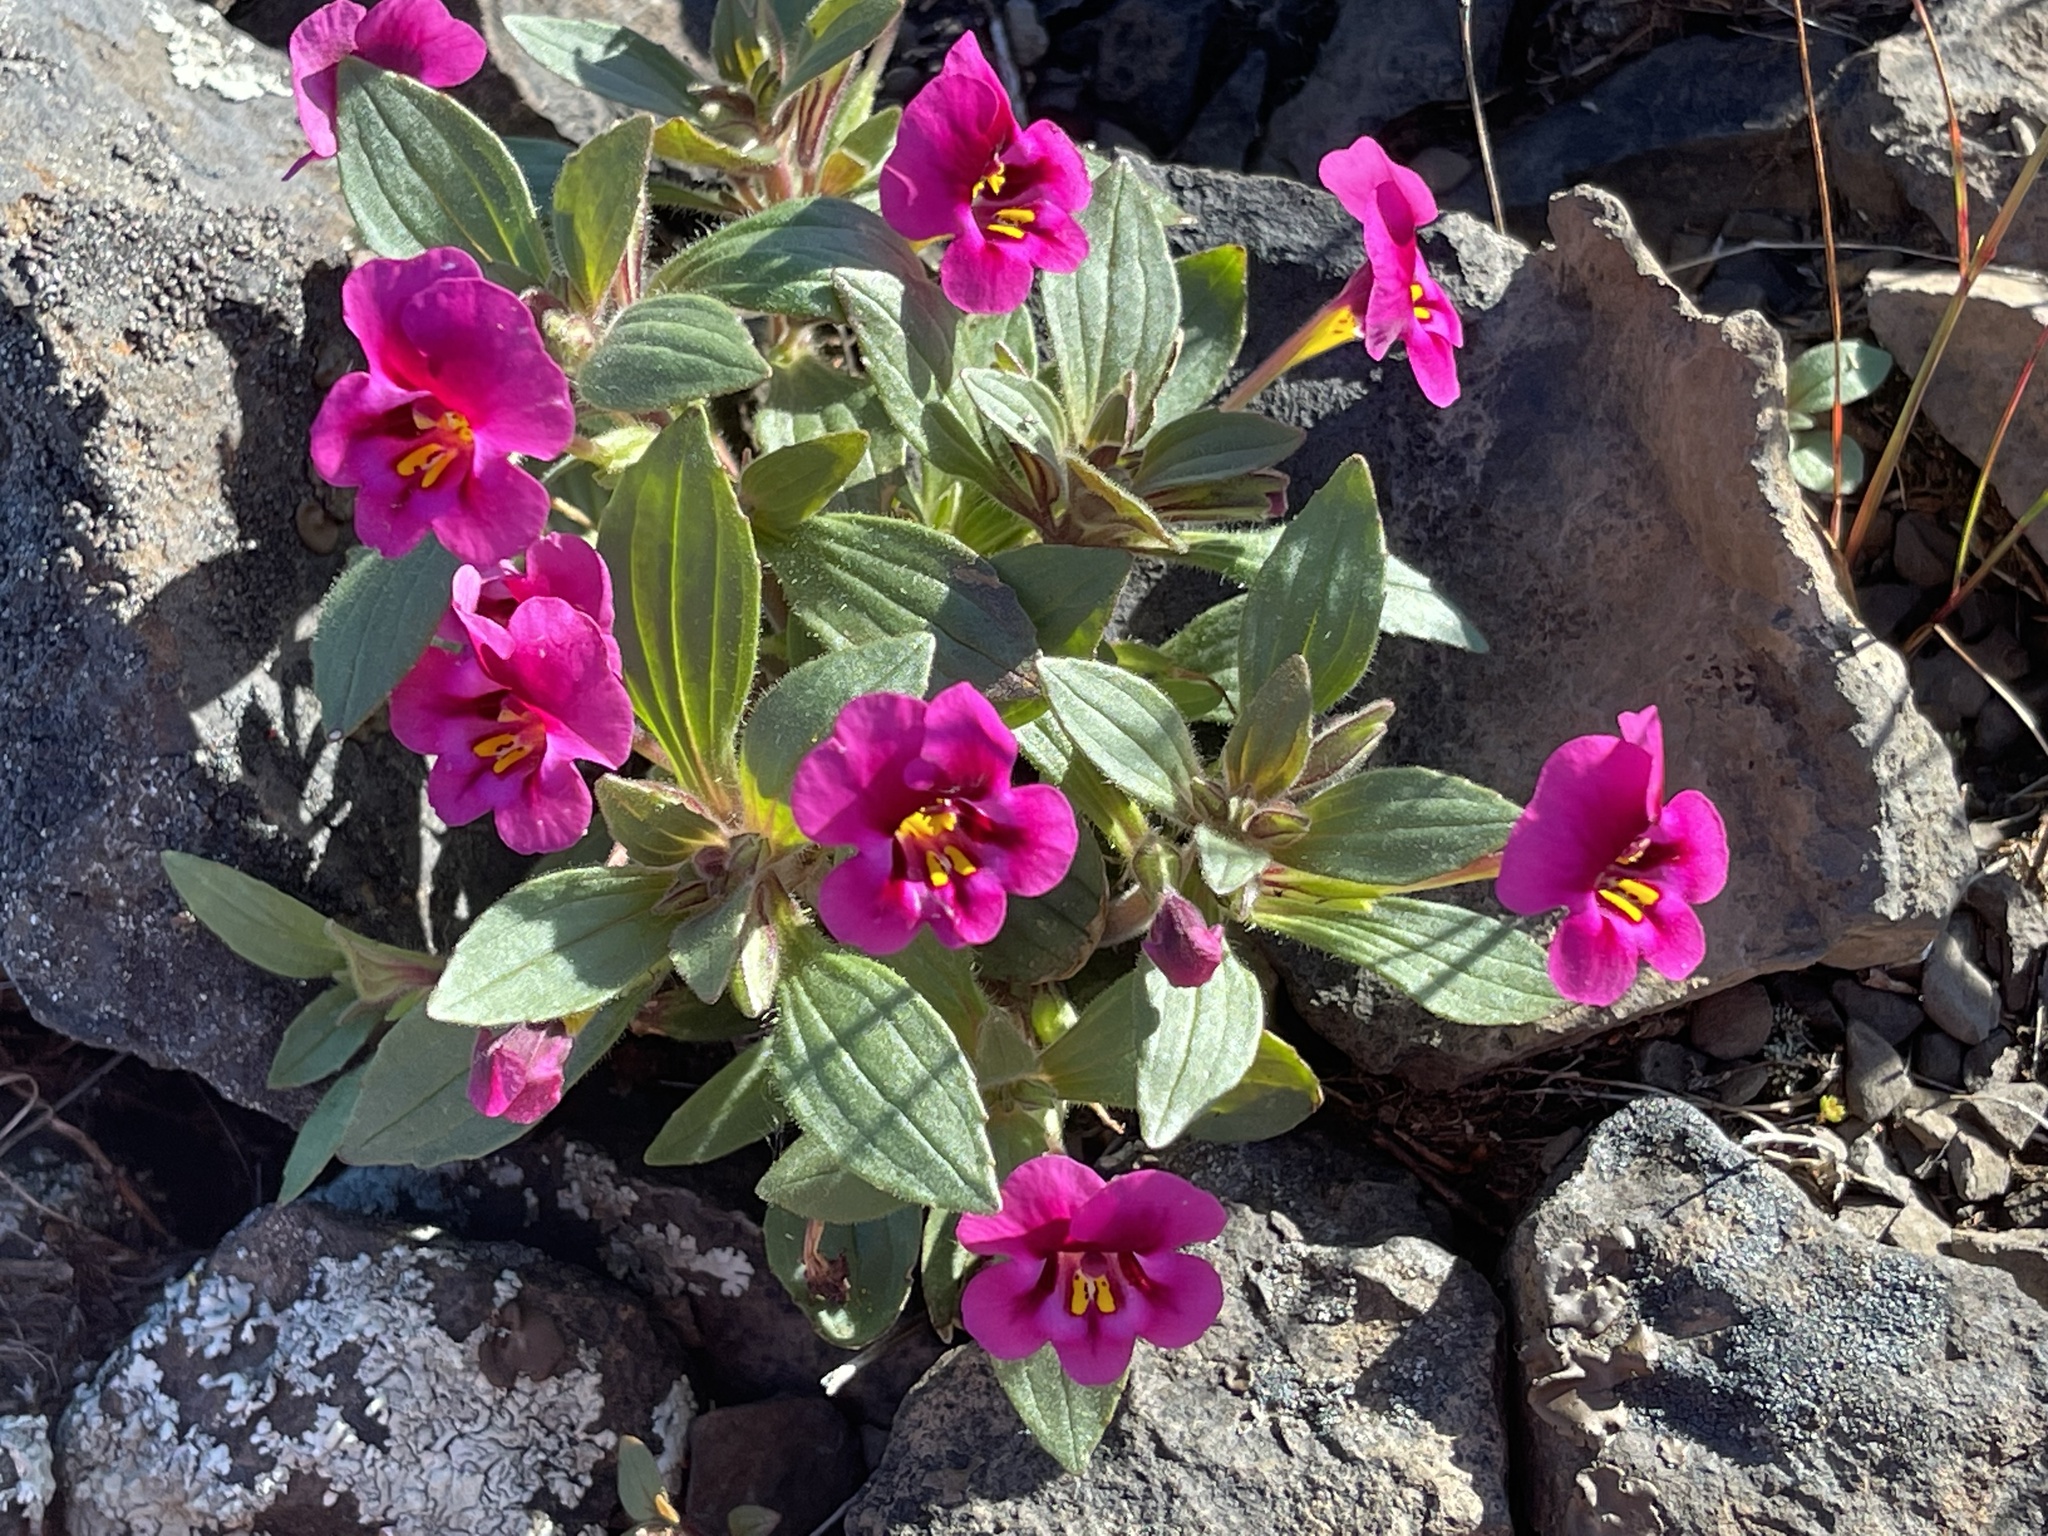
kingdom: Plantae
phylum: Tracheophyta
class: Magnoliopsida
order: Lamiales
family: Phrymaceae
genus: Diplacus
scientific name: Diplacus kelloggii
